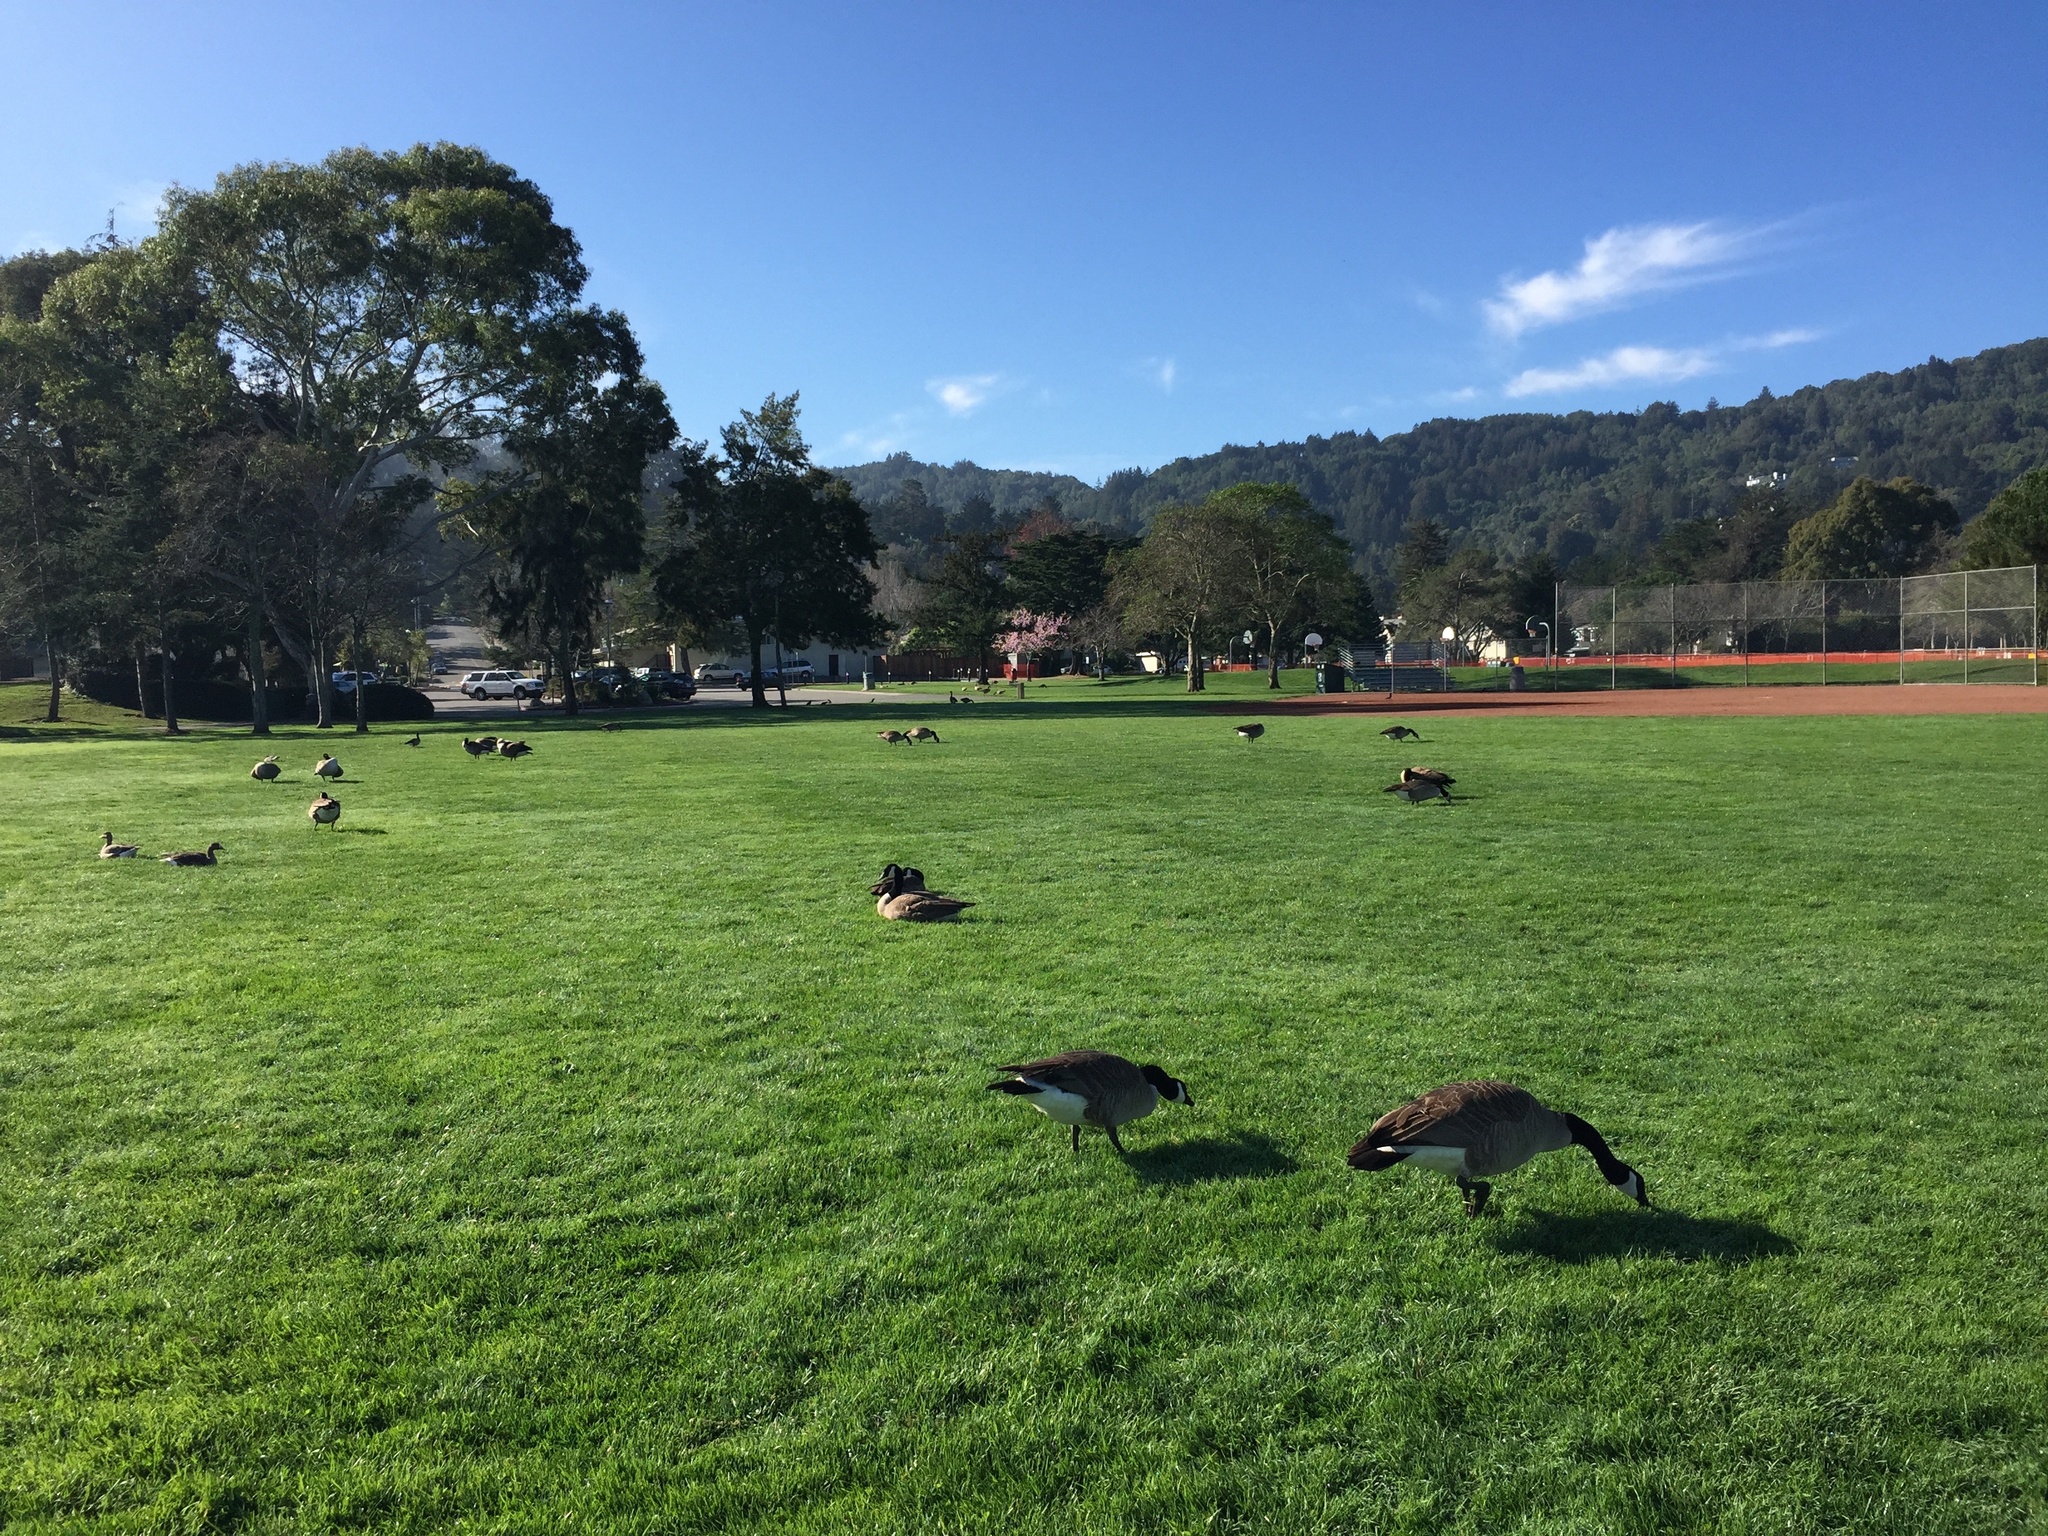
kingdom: Animalia
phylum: Chordata
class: Aves
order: Anseriformes
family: Anatidae
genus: Branta
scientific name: Branta canadensis
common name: Canada goose
